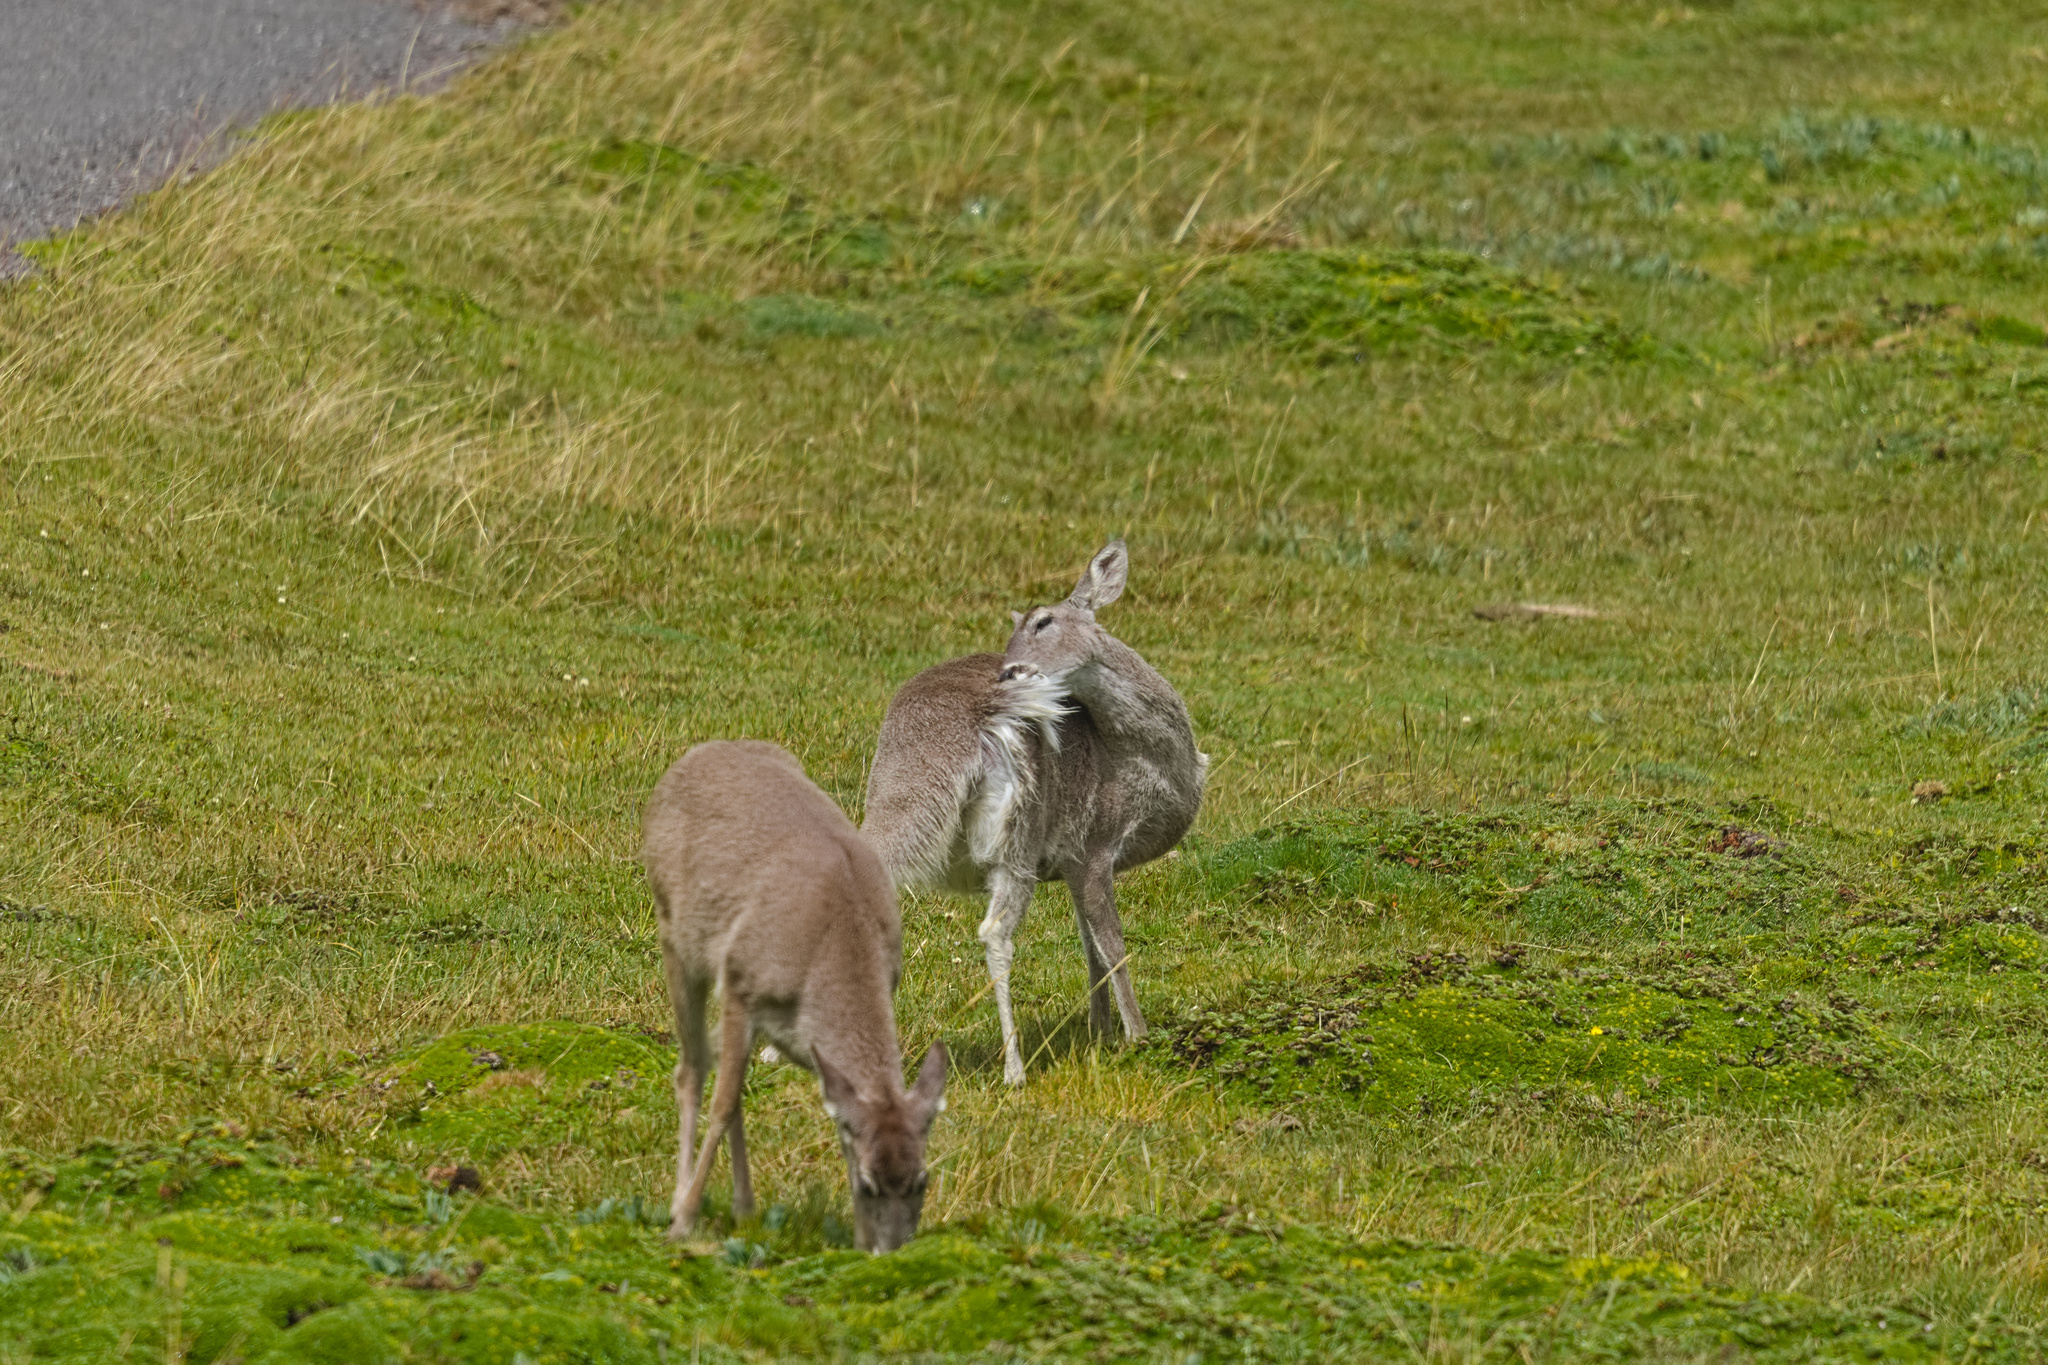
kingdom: Animalia
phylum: Chordata
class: Mammalia
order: Artiodactyla
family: Cervidae
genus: Odocoileus
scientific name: Odocoileus virginianus
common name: White-tailed deer
